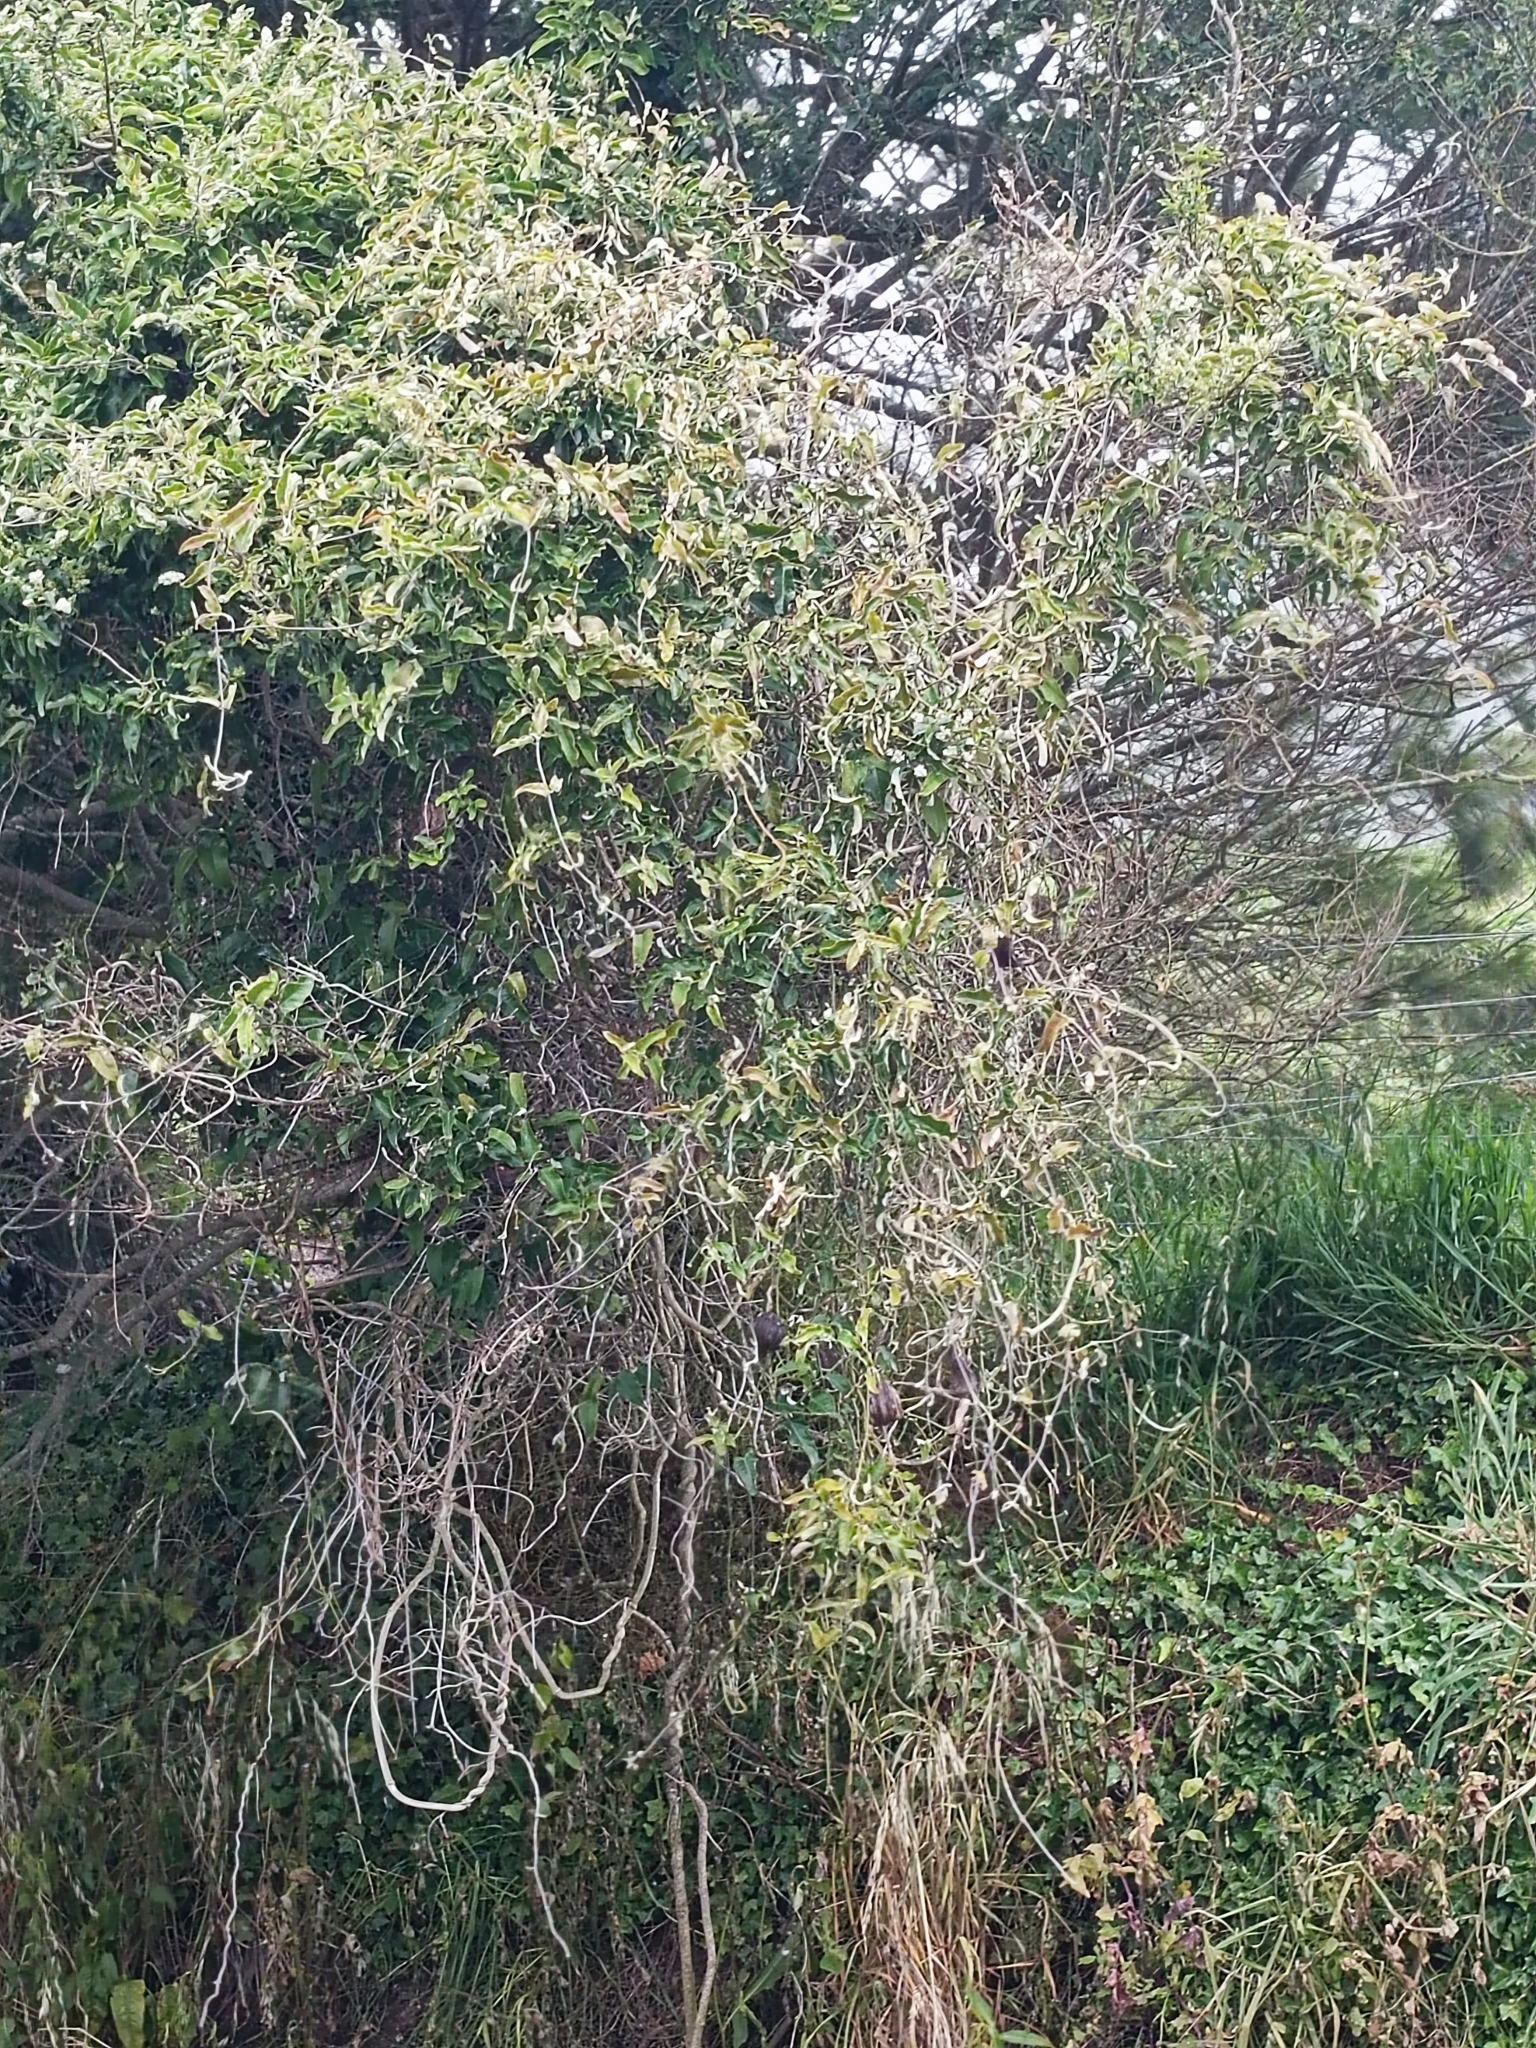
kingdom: Plantae
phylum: Tracheophyta
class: Magnoliopsida
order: Gentianales
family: Apocynaceae
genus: Araujia
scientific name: Araujia sericifera
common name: White bladderflower
